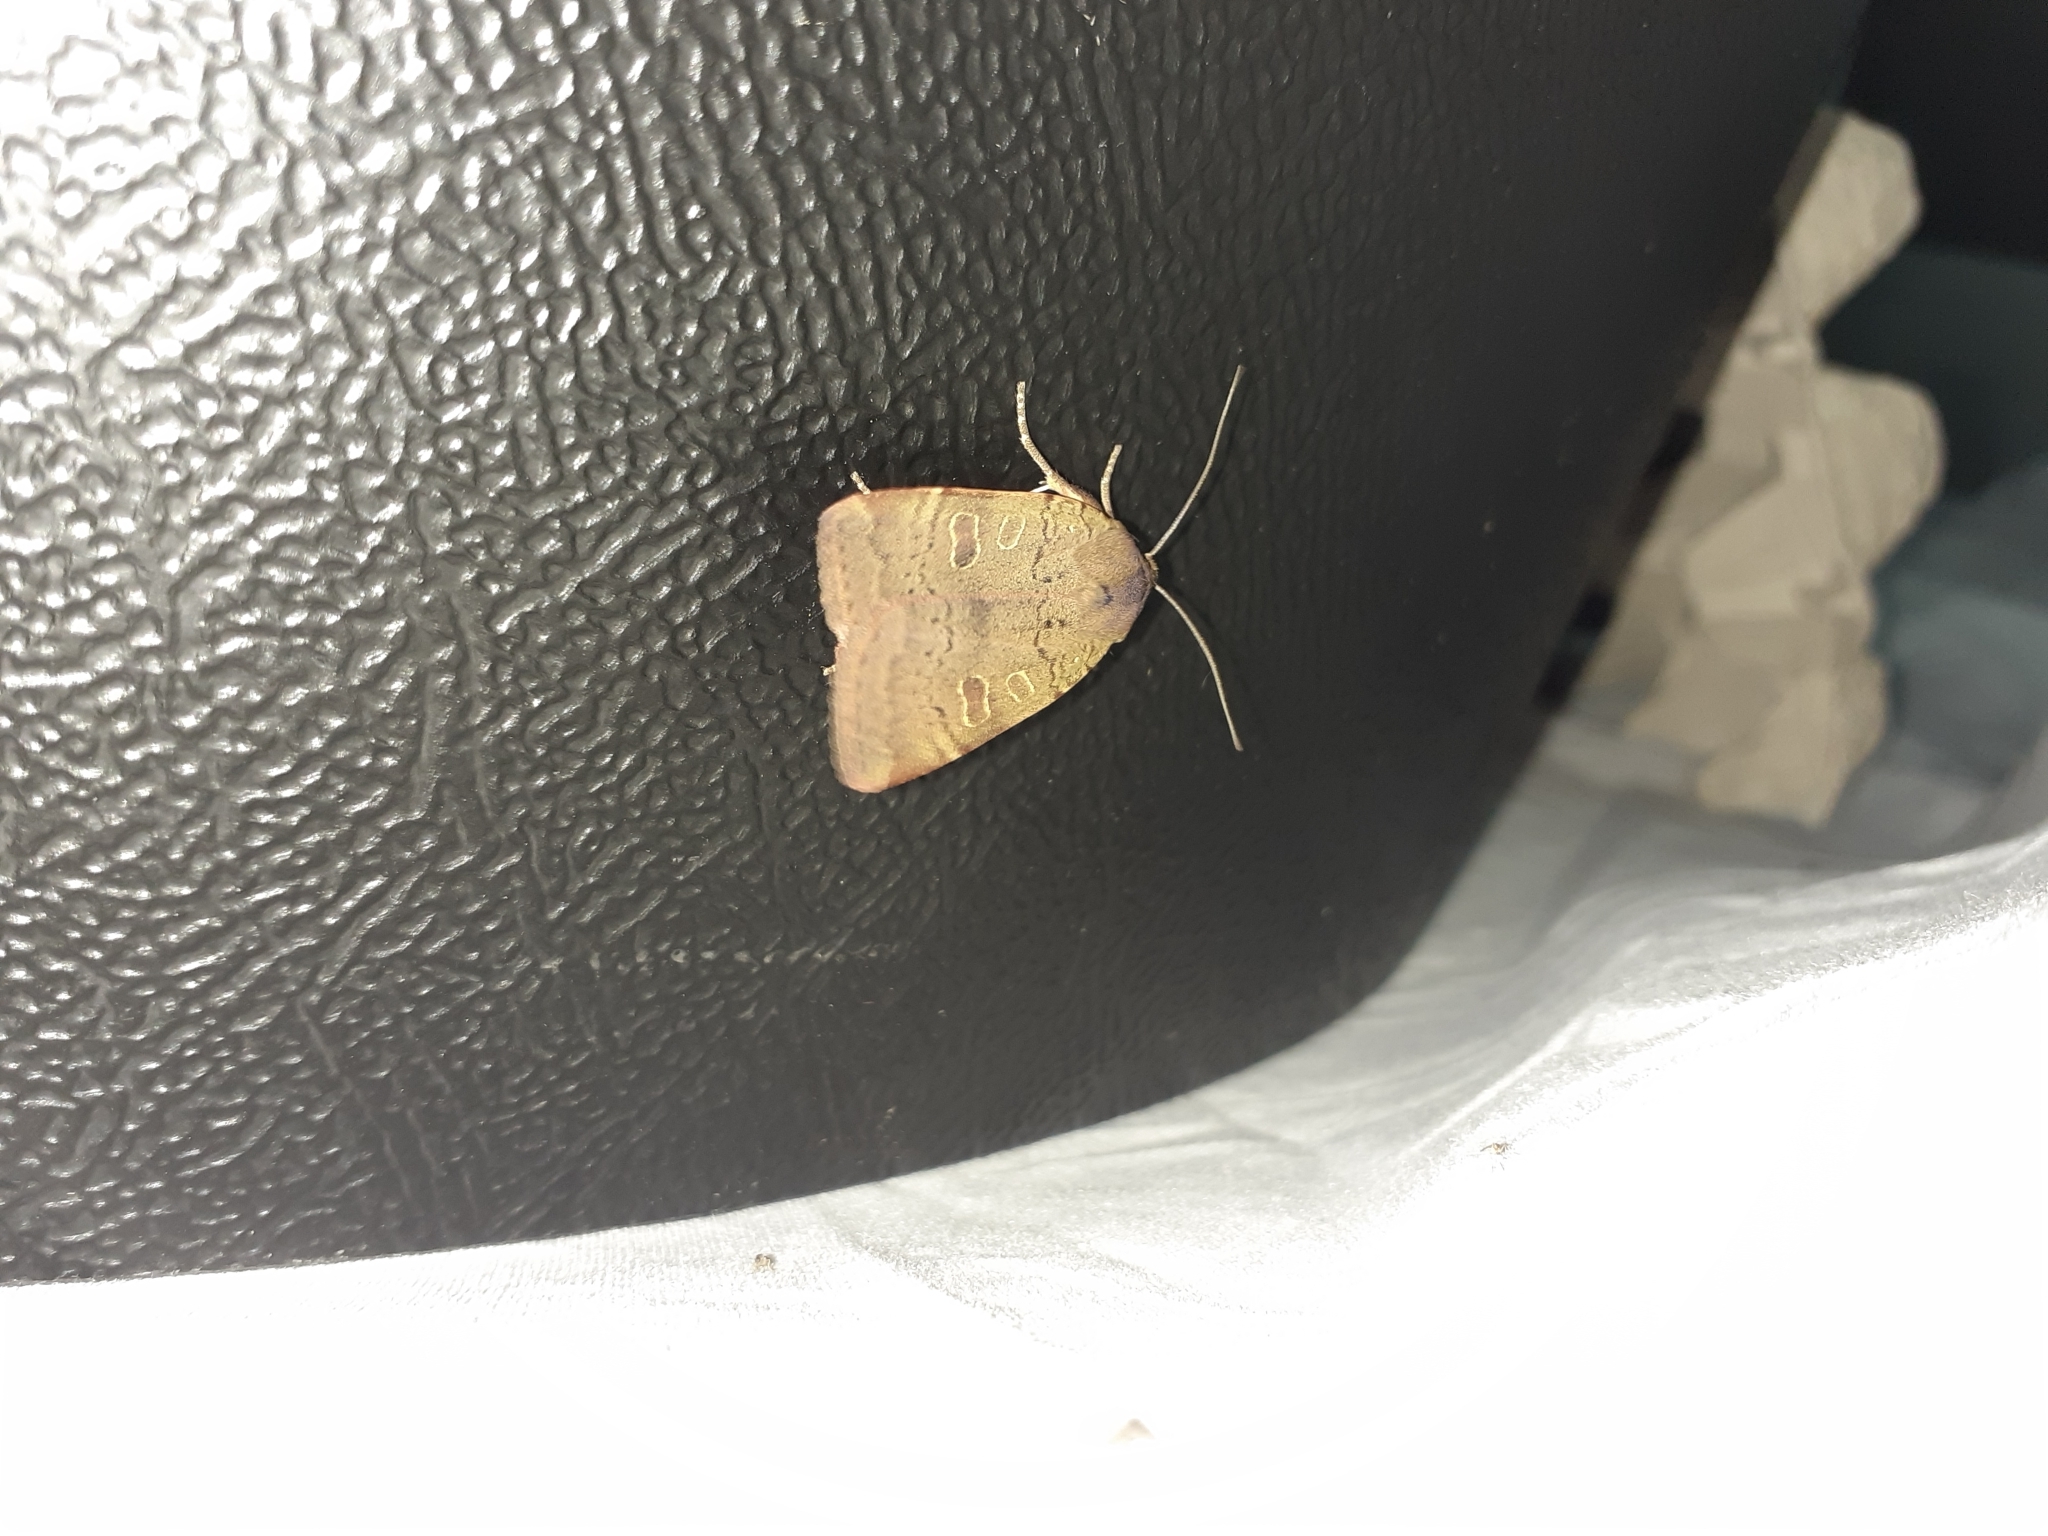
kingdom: Animalia
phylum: Arthropoda
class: Insecta
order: Lepidoptera
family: Noctuidae
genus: Noctua
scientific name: Noctua comes
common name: Lesser yellow underwing
